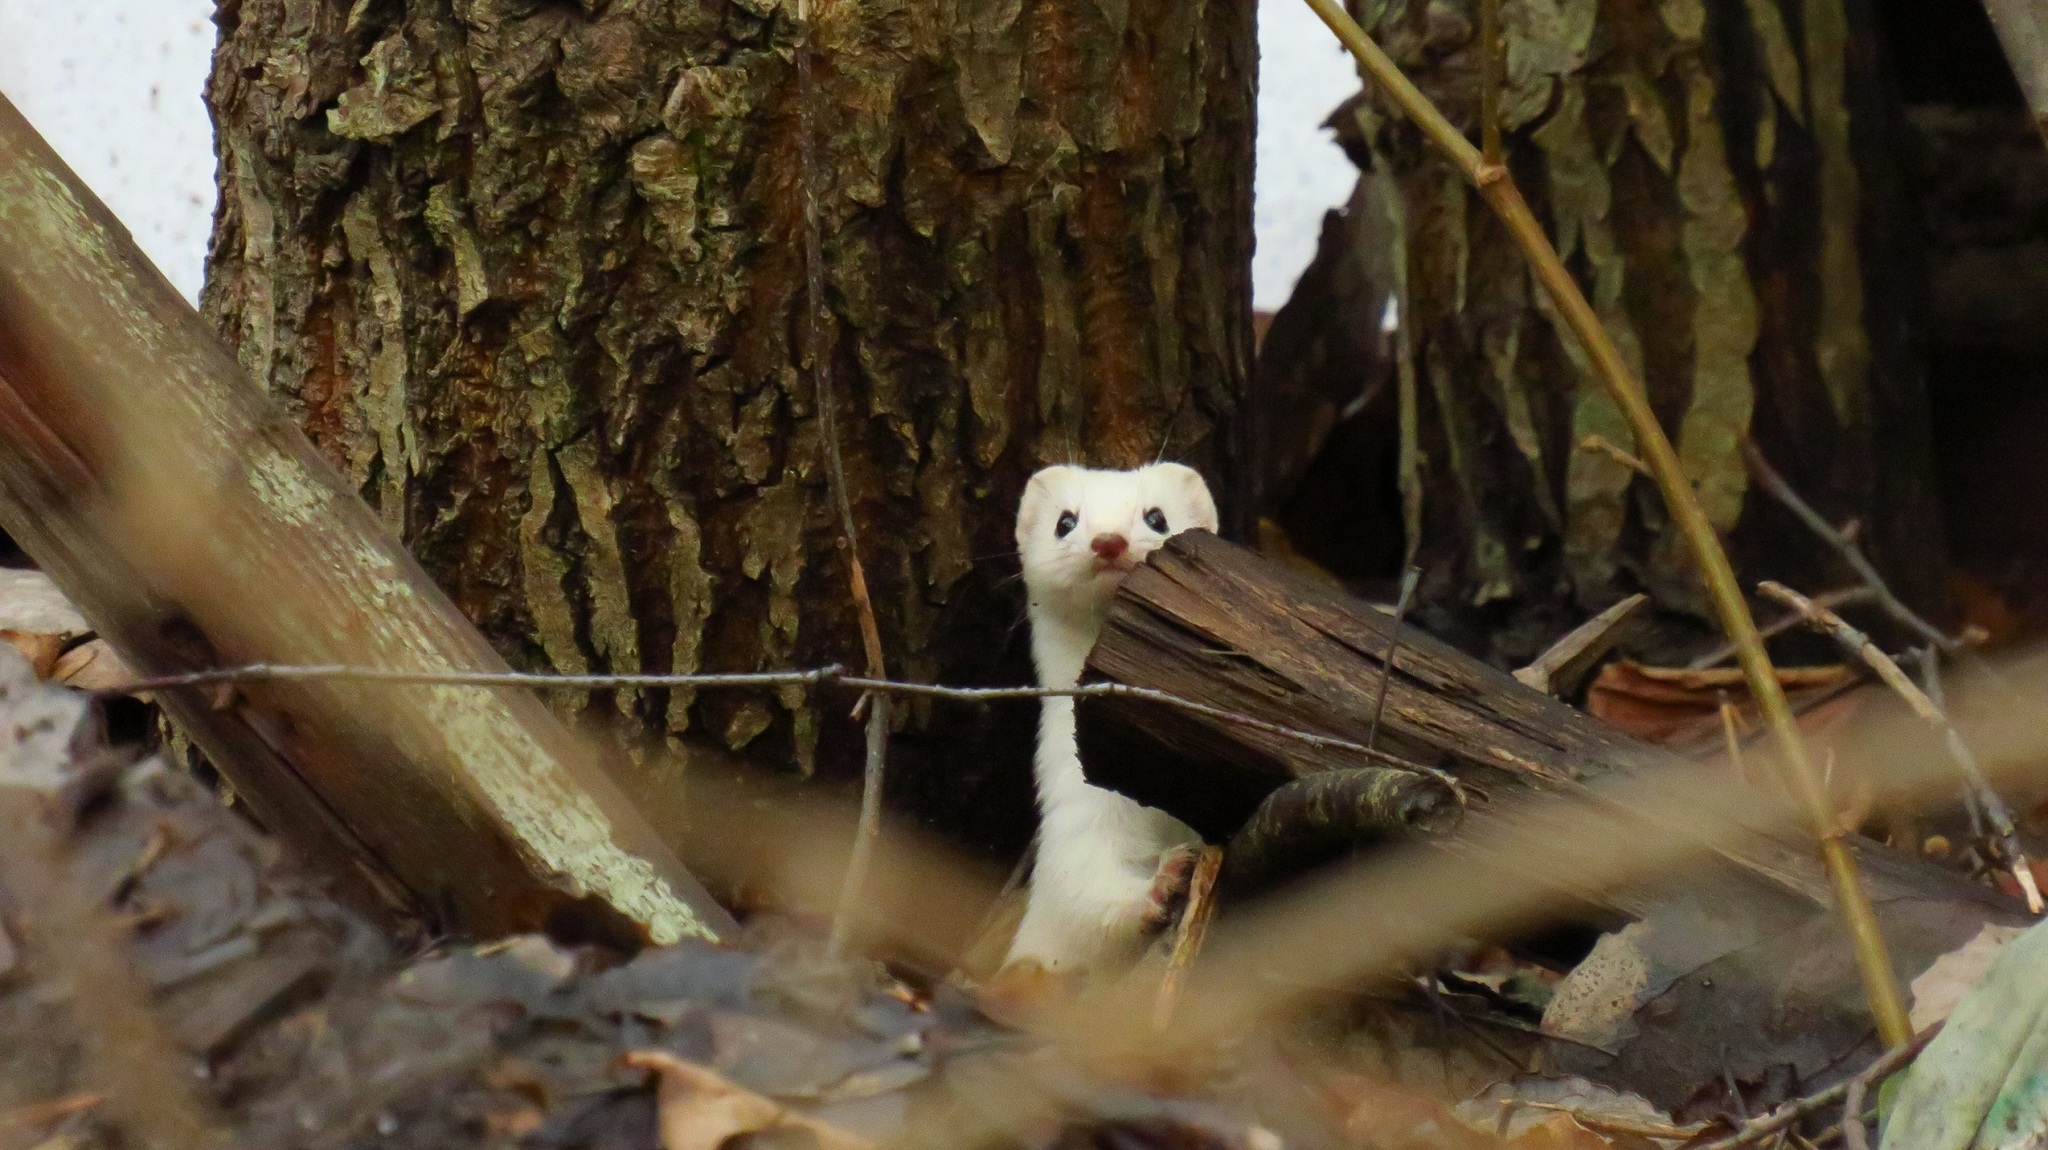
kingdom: Animalia
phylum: Chordata
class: Mammalia
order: Carnivora
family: Mustelidae
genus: Mustela
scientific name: Mustela nivalis
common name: Least weasel
